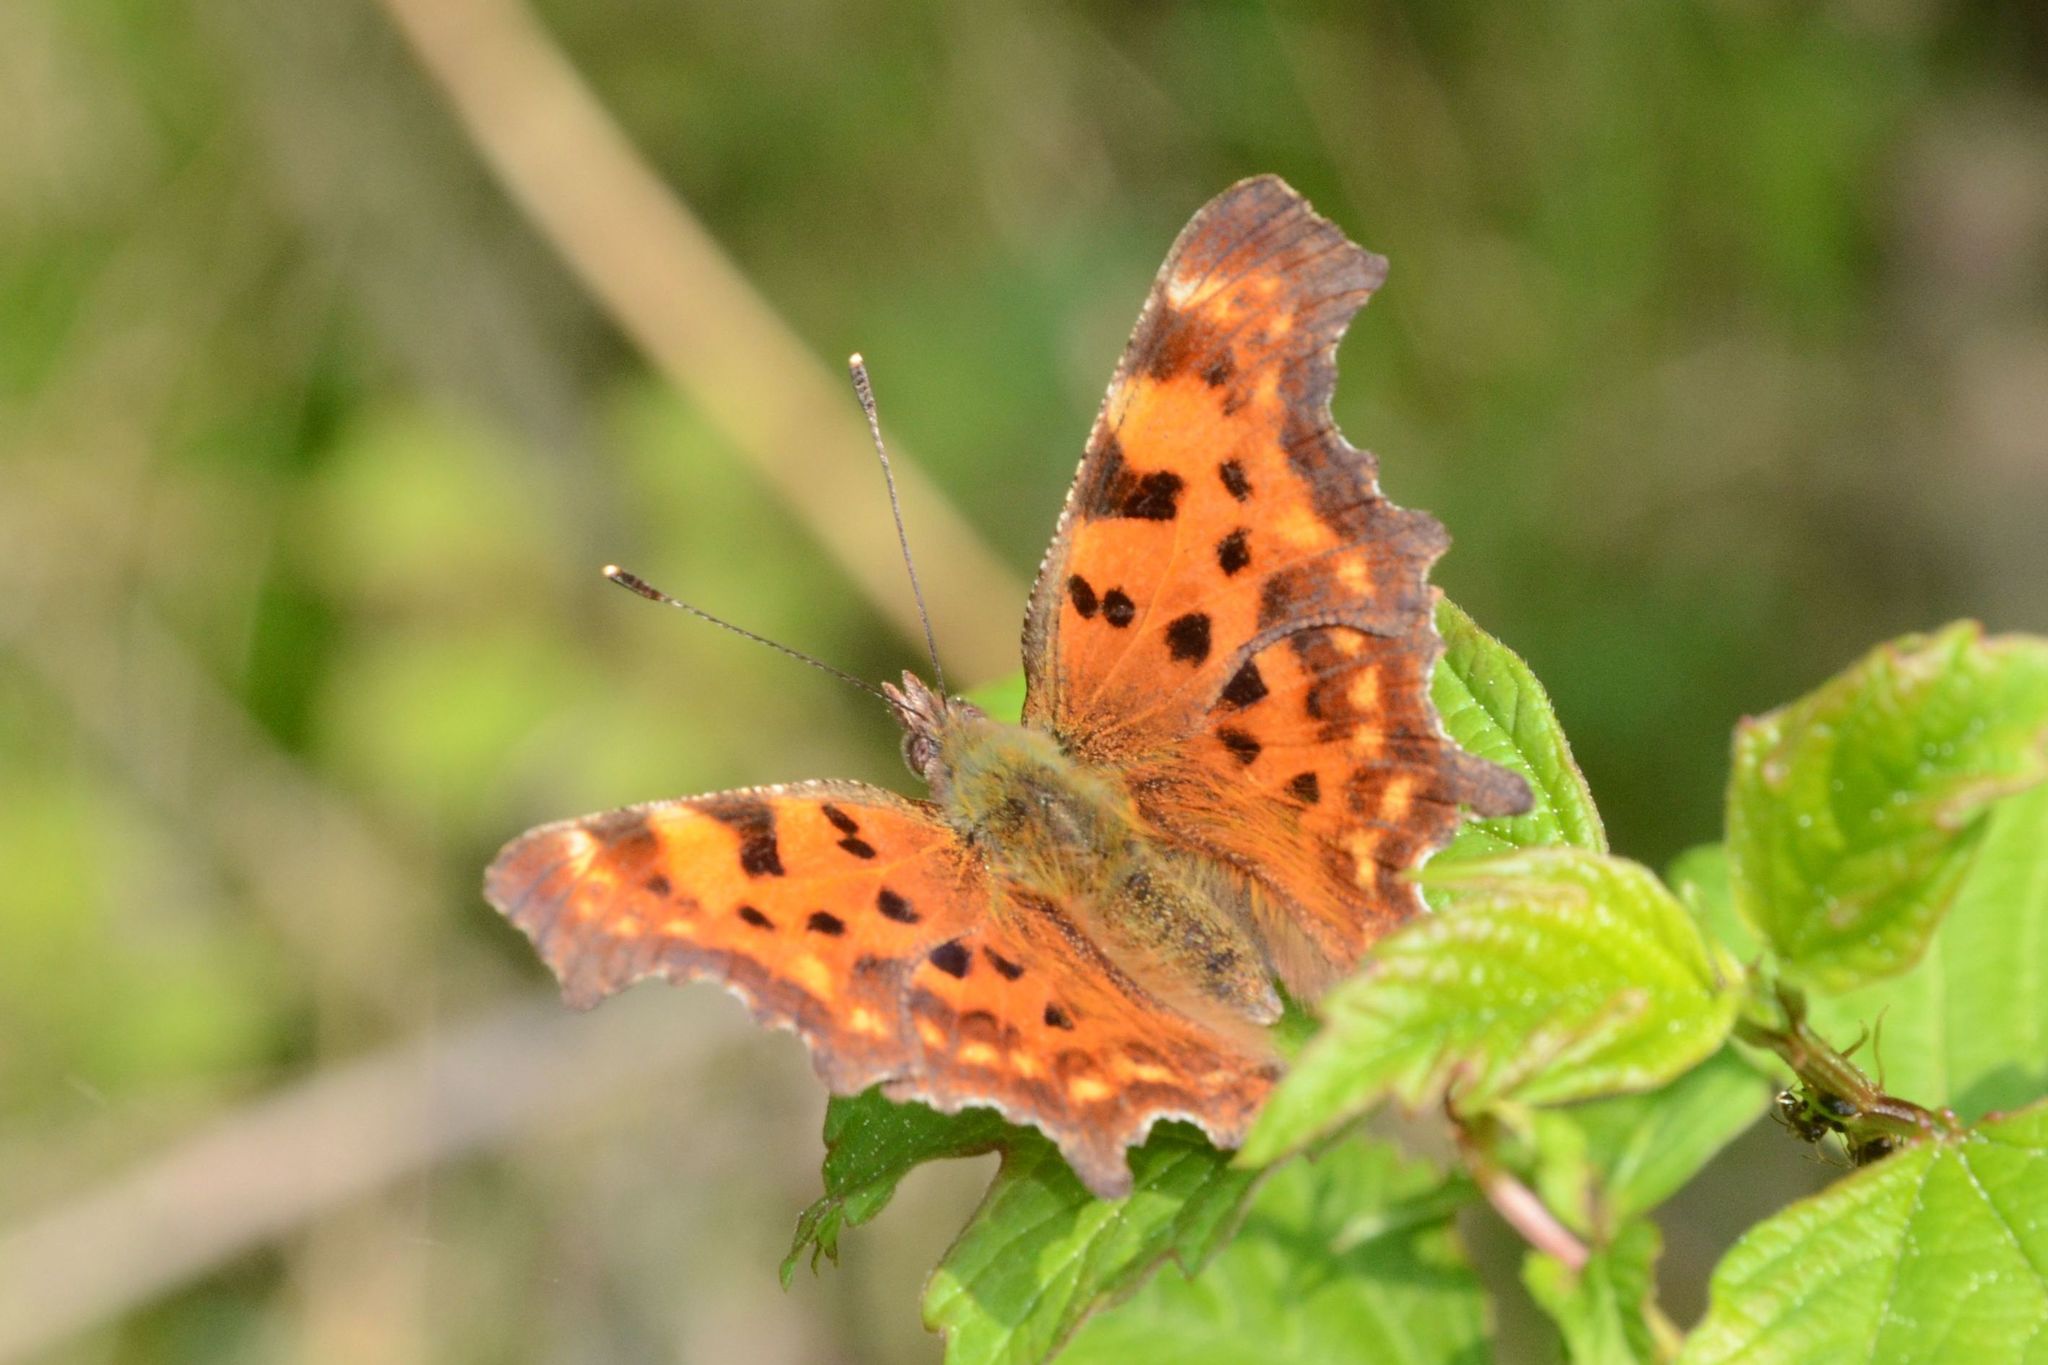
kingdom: Animalia
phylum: Arthropoda
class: Insecta
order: Lepidoptera
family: Nymphalidae
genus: Polygonia
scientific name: Polygonia c-album
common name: Comma
